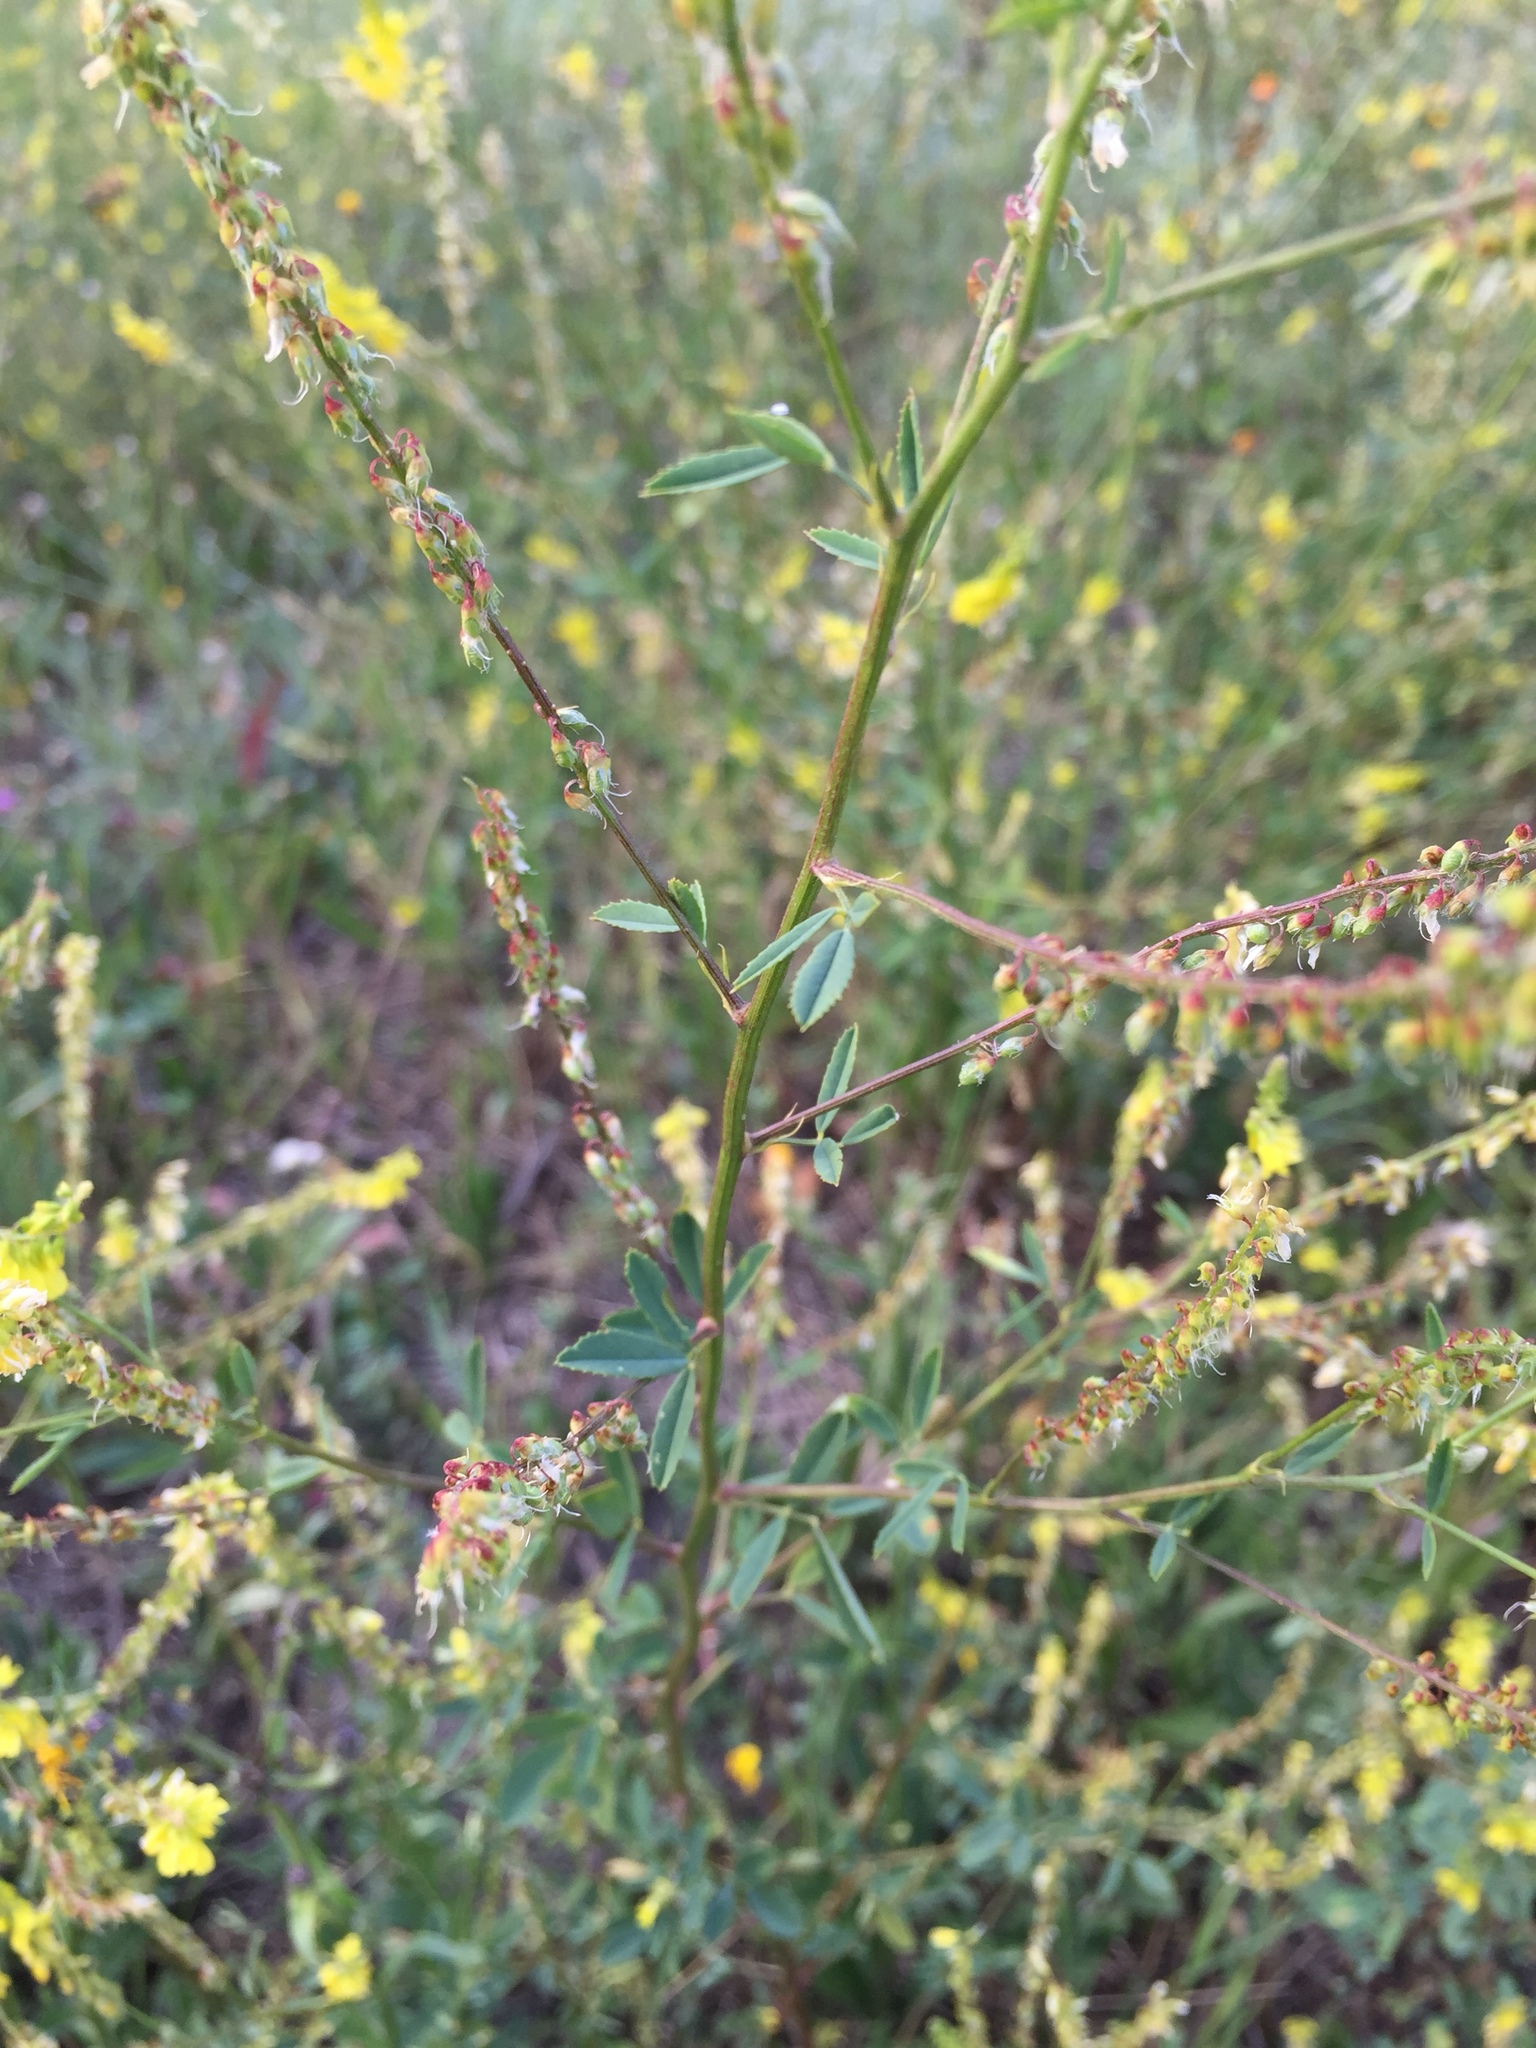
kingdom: Plantae
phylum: Tracheophyta
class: Magnoliopsida
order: Fabales
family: Fabaceae
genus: Melilotus
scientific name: Melilotus officinalis
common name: Sweetclover
